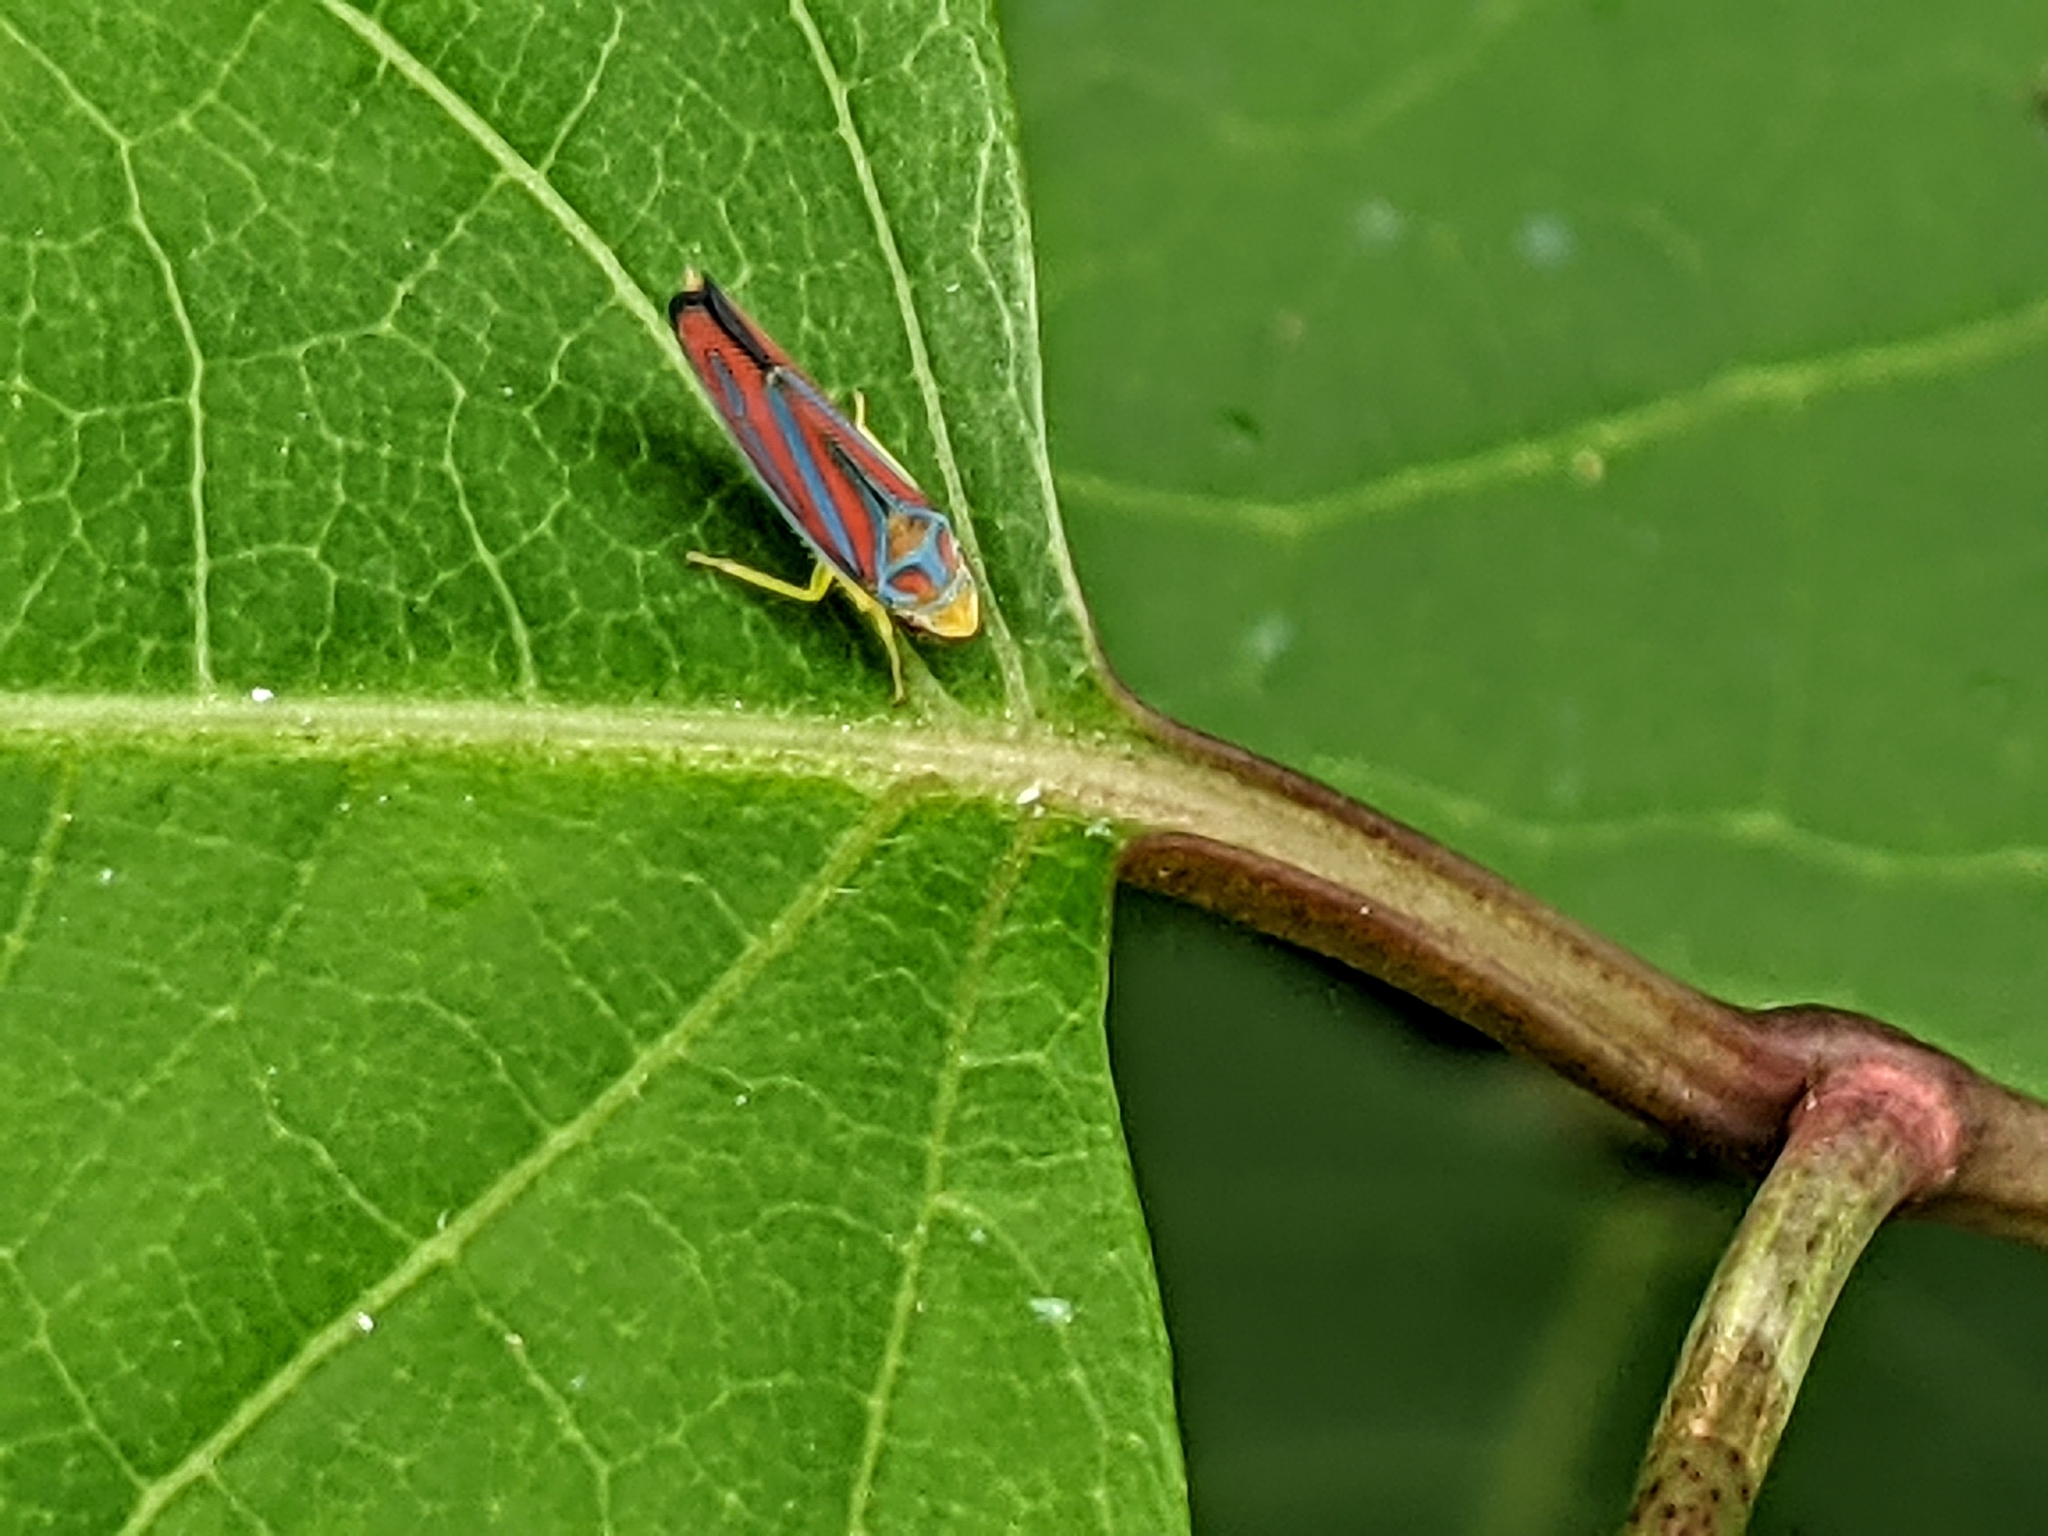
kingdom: Animalia
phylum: Arthropoda
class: Insecta
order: Hemiptera
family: Cicadellidae
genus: Graphocephala
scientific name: Graphocephala coccinea
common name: Candy-striped leafhopper
